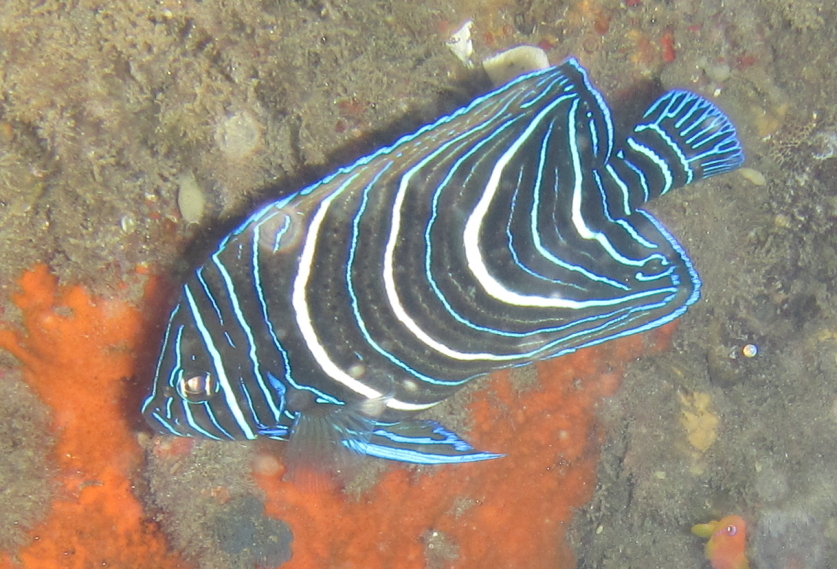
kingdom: Animalia
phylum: Chordata
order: Perciformes
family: Pomacanthidae
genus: Pomacanthus
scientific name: Pomacanthus semicirculatus
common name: Semicircle angelfish
